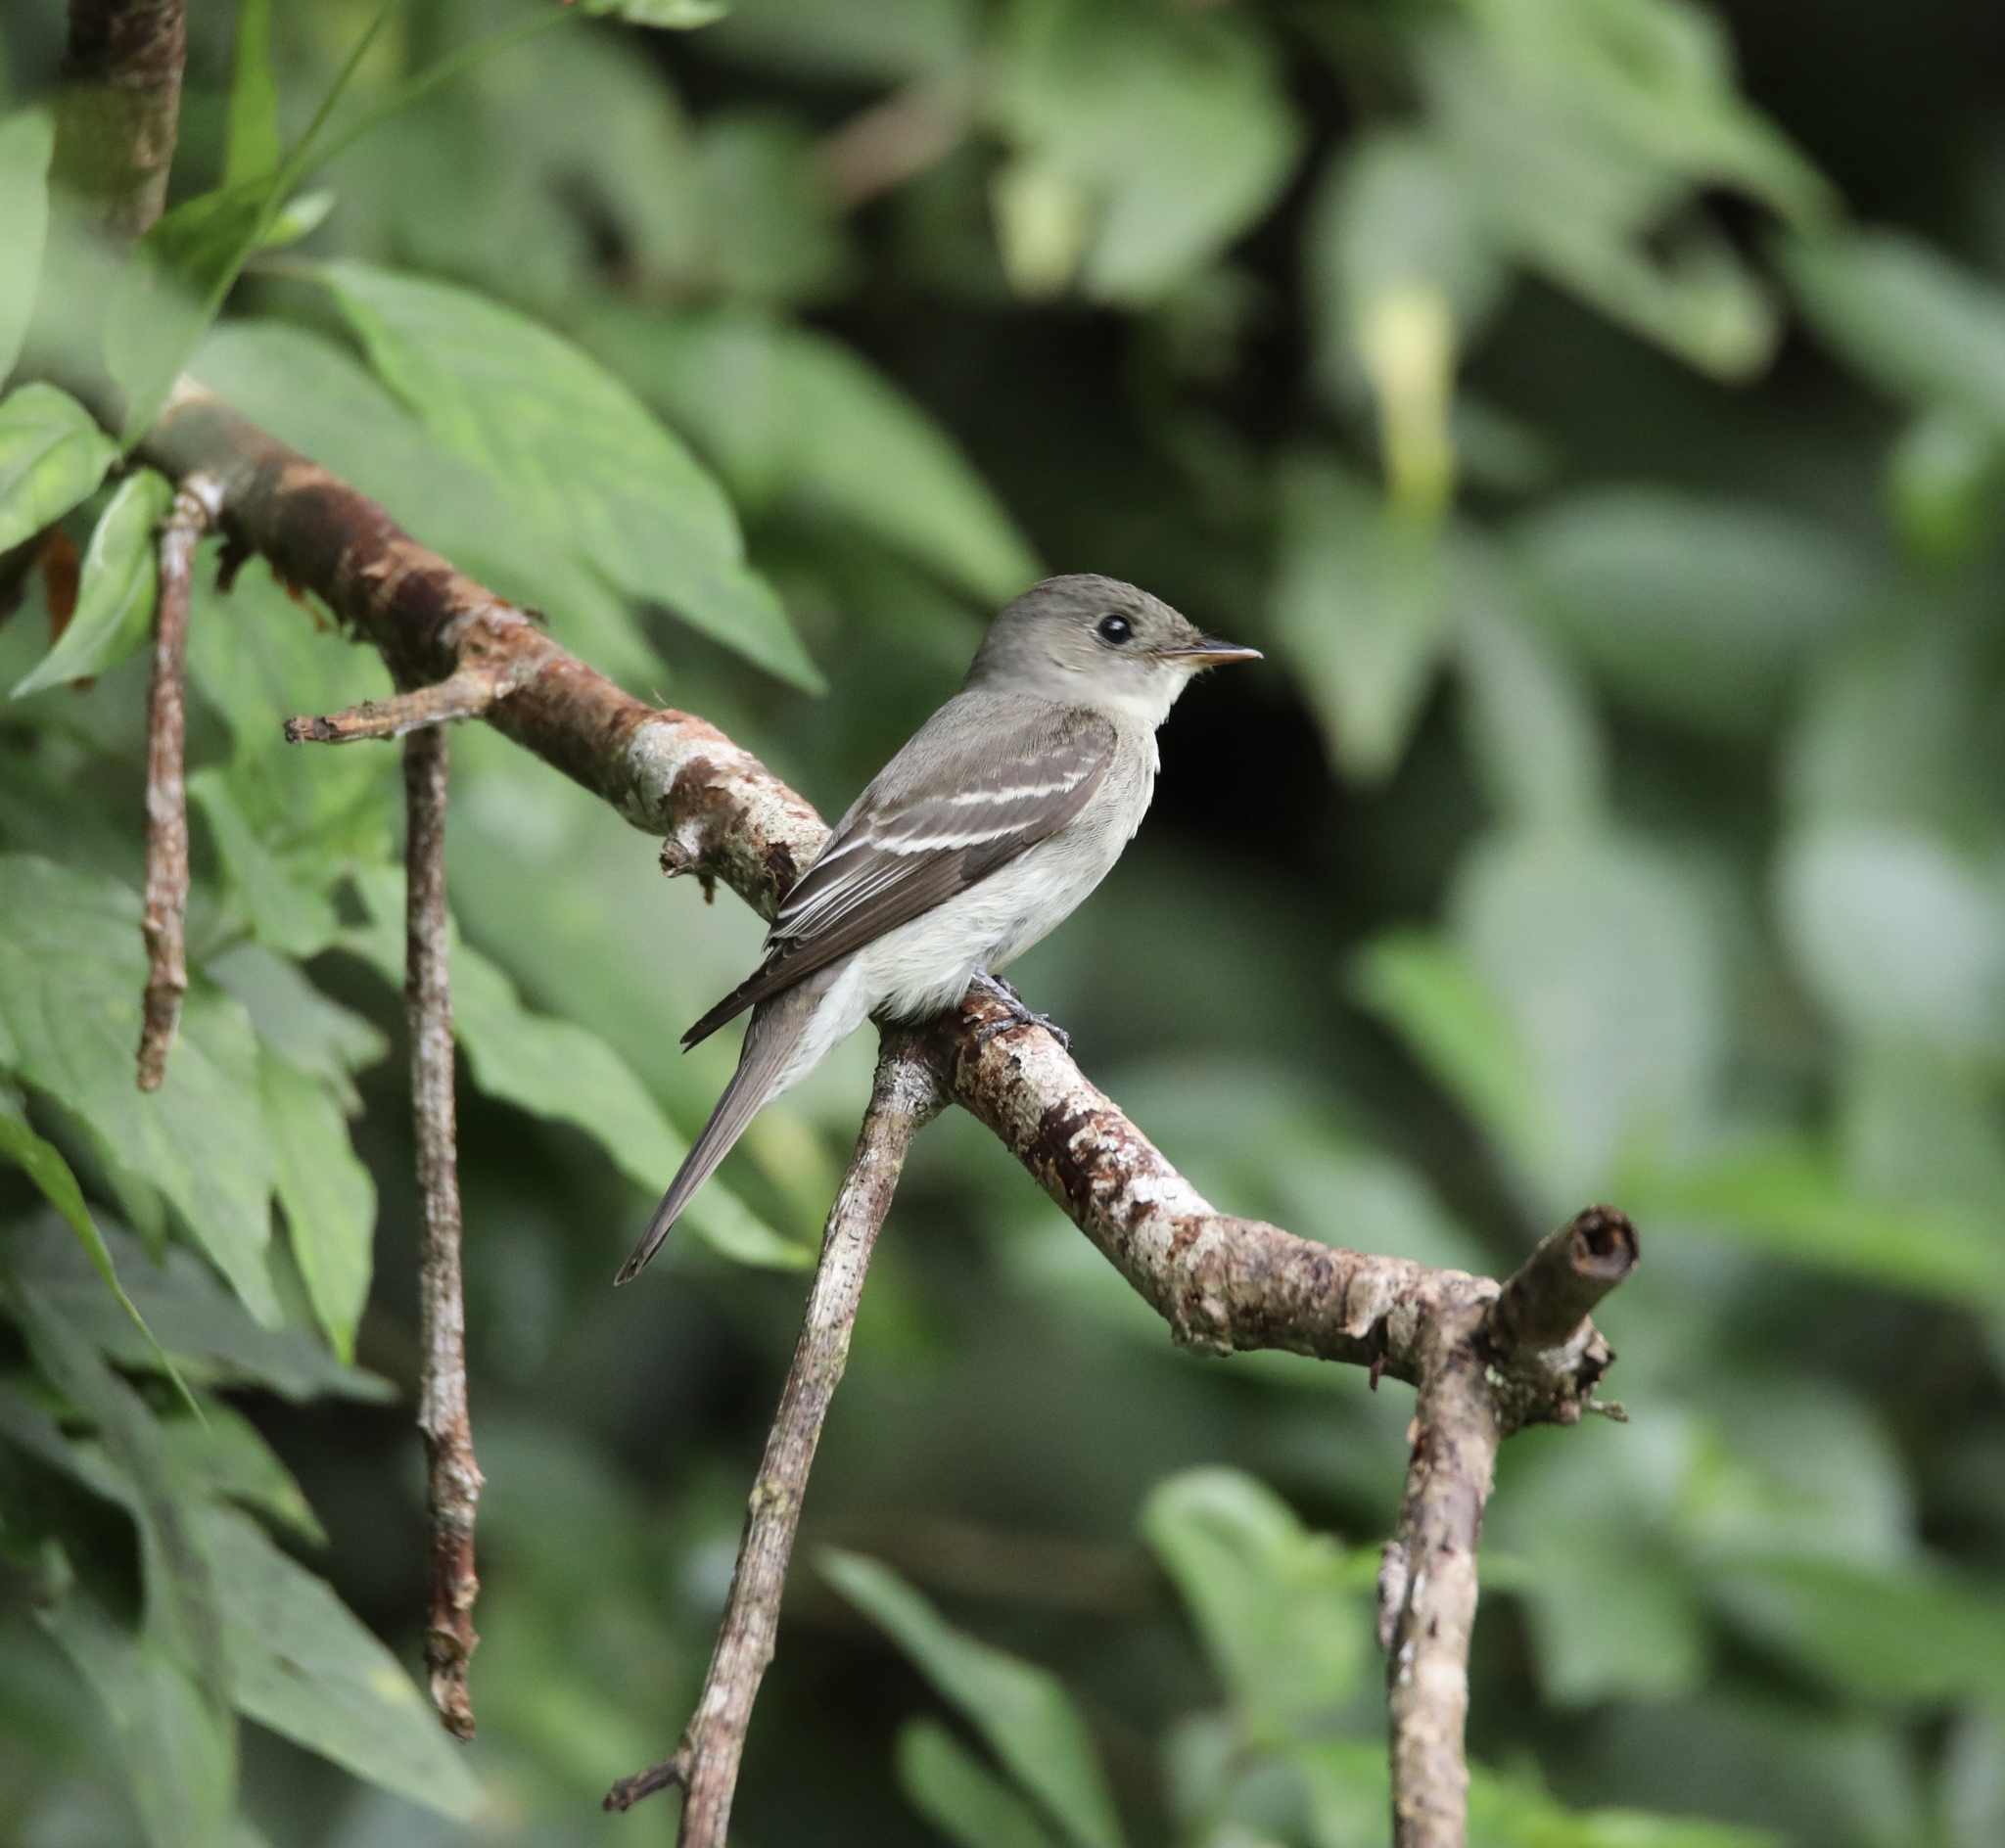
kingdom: Animalia
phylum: Chordata
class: Aves
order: Passeriformes
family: Tyrannidae
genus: Contopus
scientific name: Contopus virens
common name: Eastern wood-pewee
